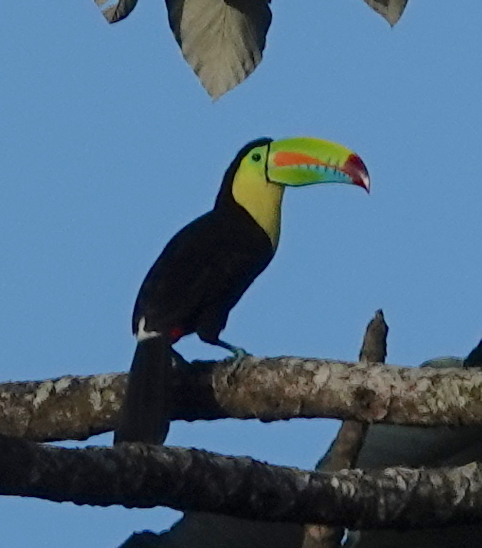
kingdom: Animalia
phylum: Chordata
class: Aves
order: Piciformes
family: Ramphastidae
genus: Ramphastos
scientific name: Ramphastos sulfuratus
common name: Keel-billed toucan
